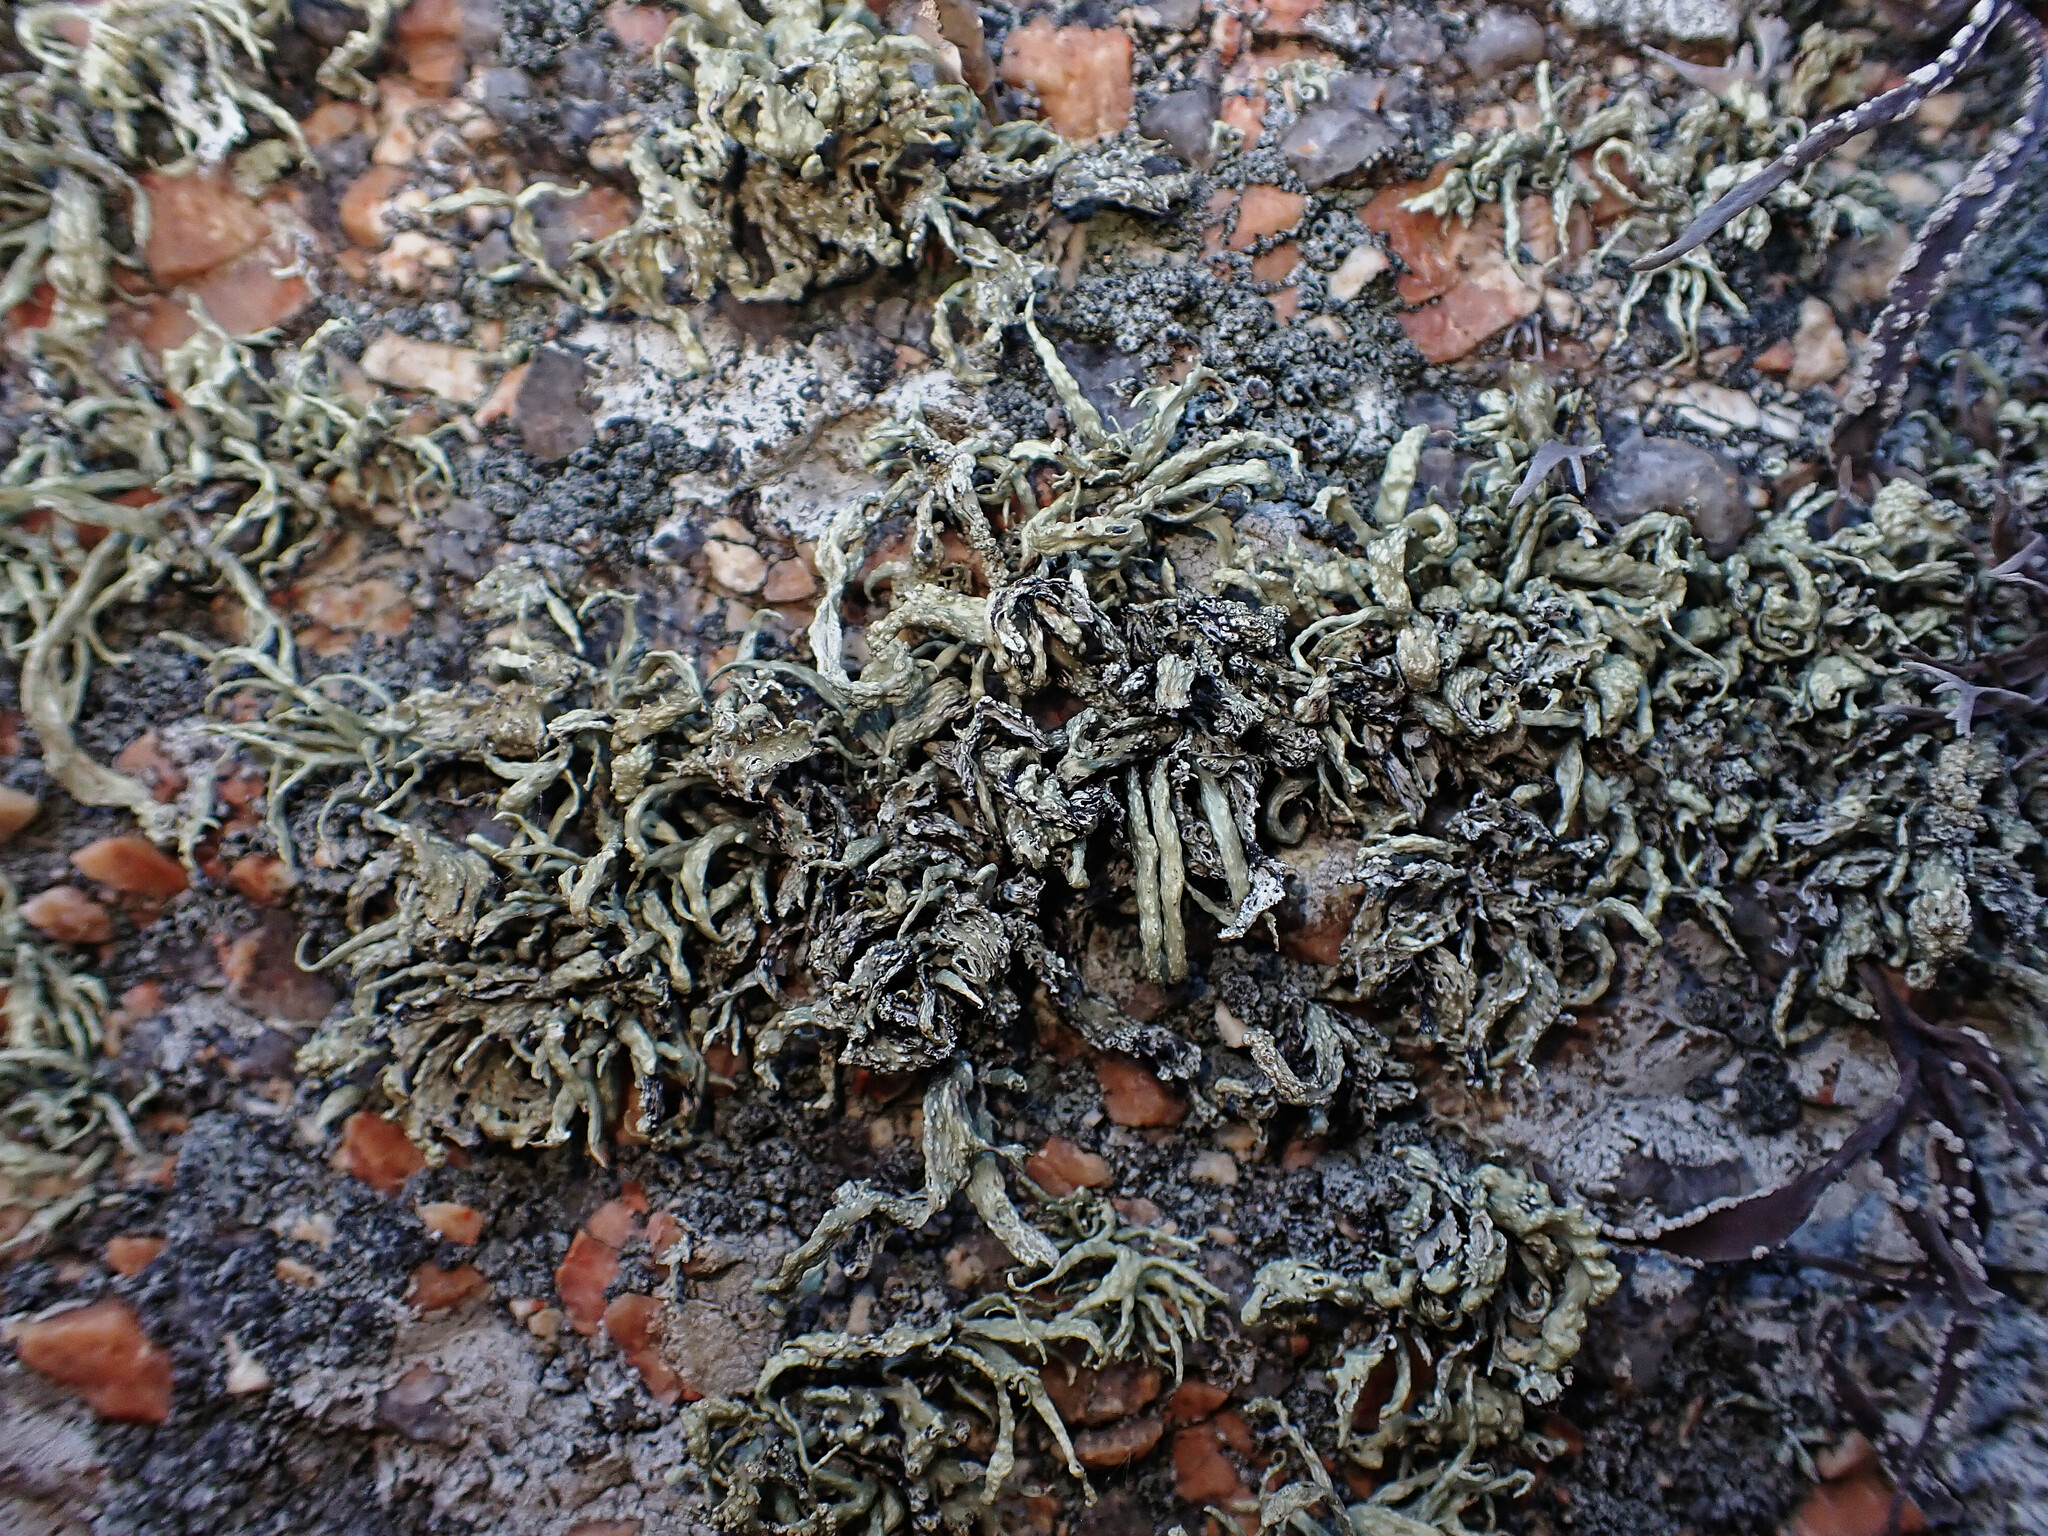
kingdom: Fungi
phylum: Ascomycota
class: Lecanoromycetes
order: Lecanorales
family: Ramalinaceae
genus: Ramalina
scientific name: Ramalina cuspidata
